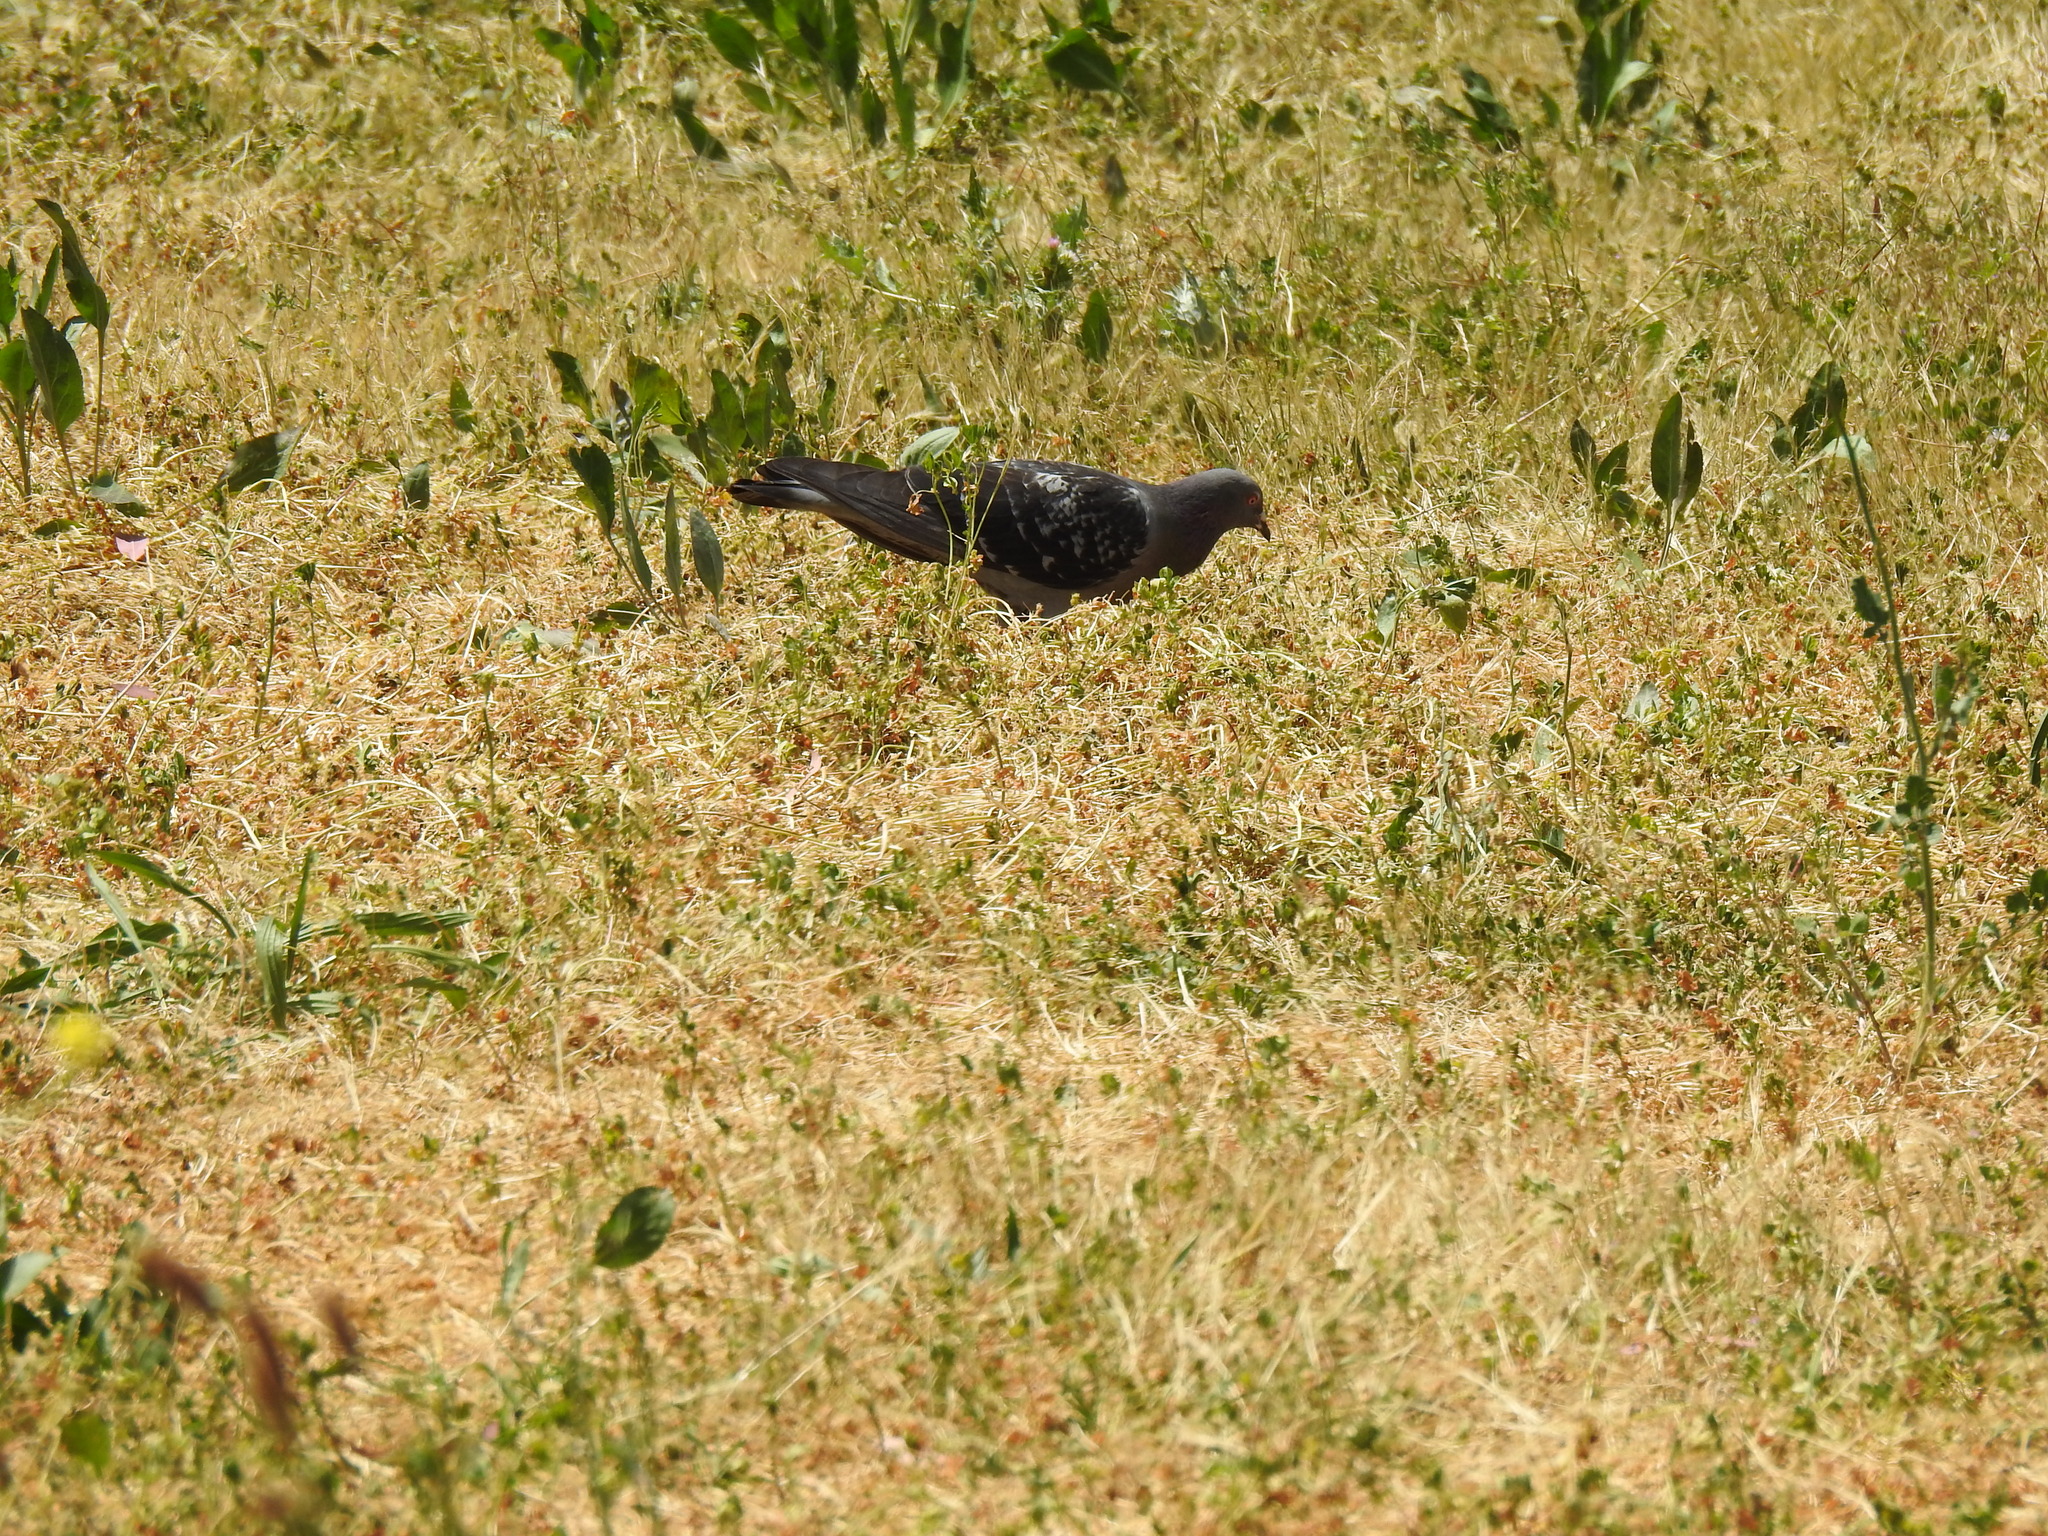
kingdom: Animalia
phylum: Chordata
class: Aves
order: Columbiformes
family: Columbidae
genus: Columba
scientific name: Columba livia
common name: Rock pigeon
